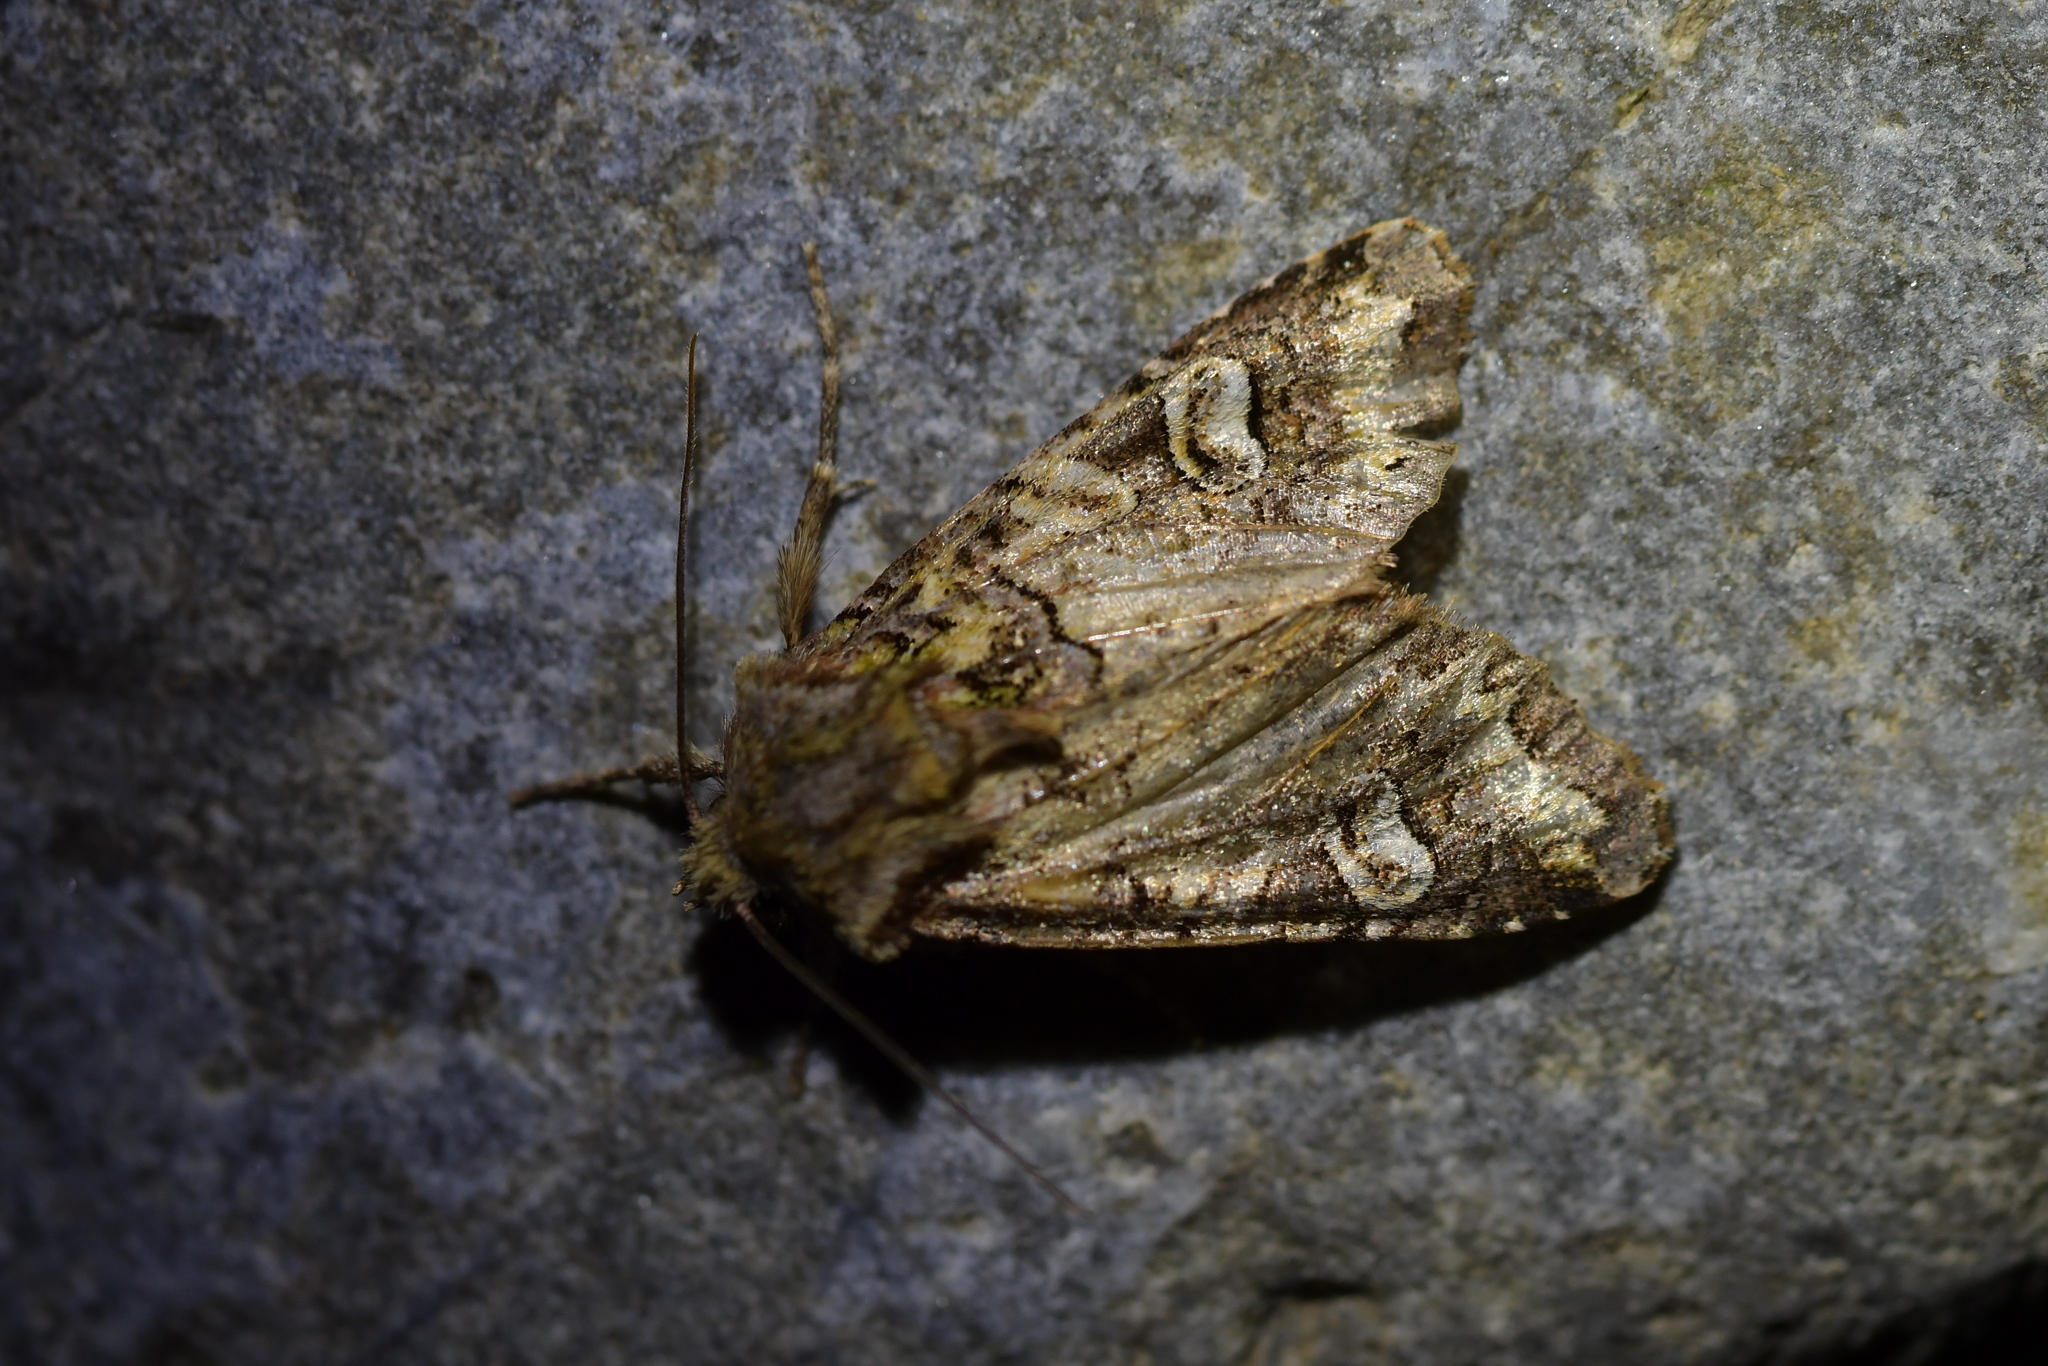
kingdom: Animalia
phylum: Arthropoda
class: Insecta
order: Lepidoptera
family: Noctuidae
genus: Ichneutica
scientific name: Ichneutica chlorodonta
